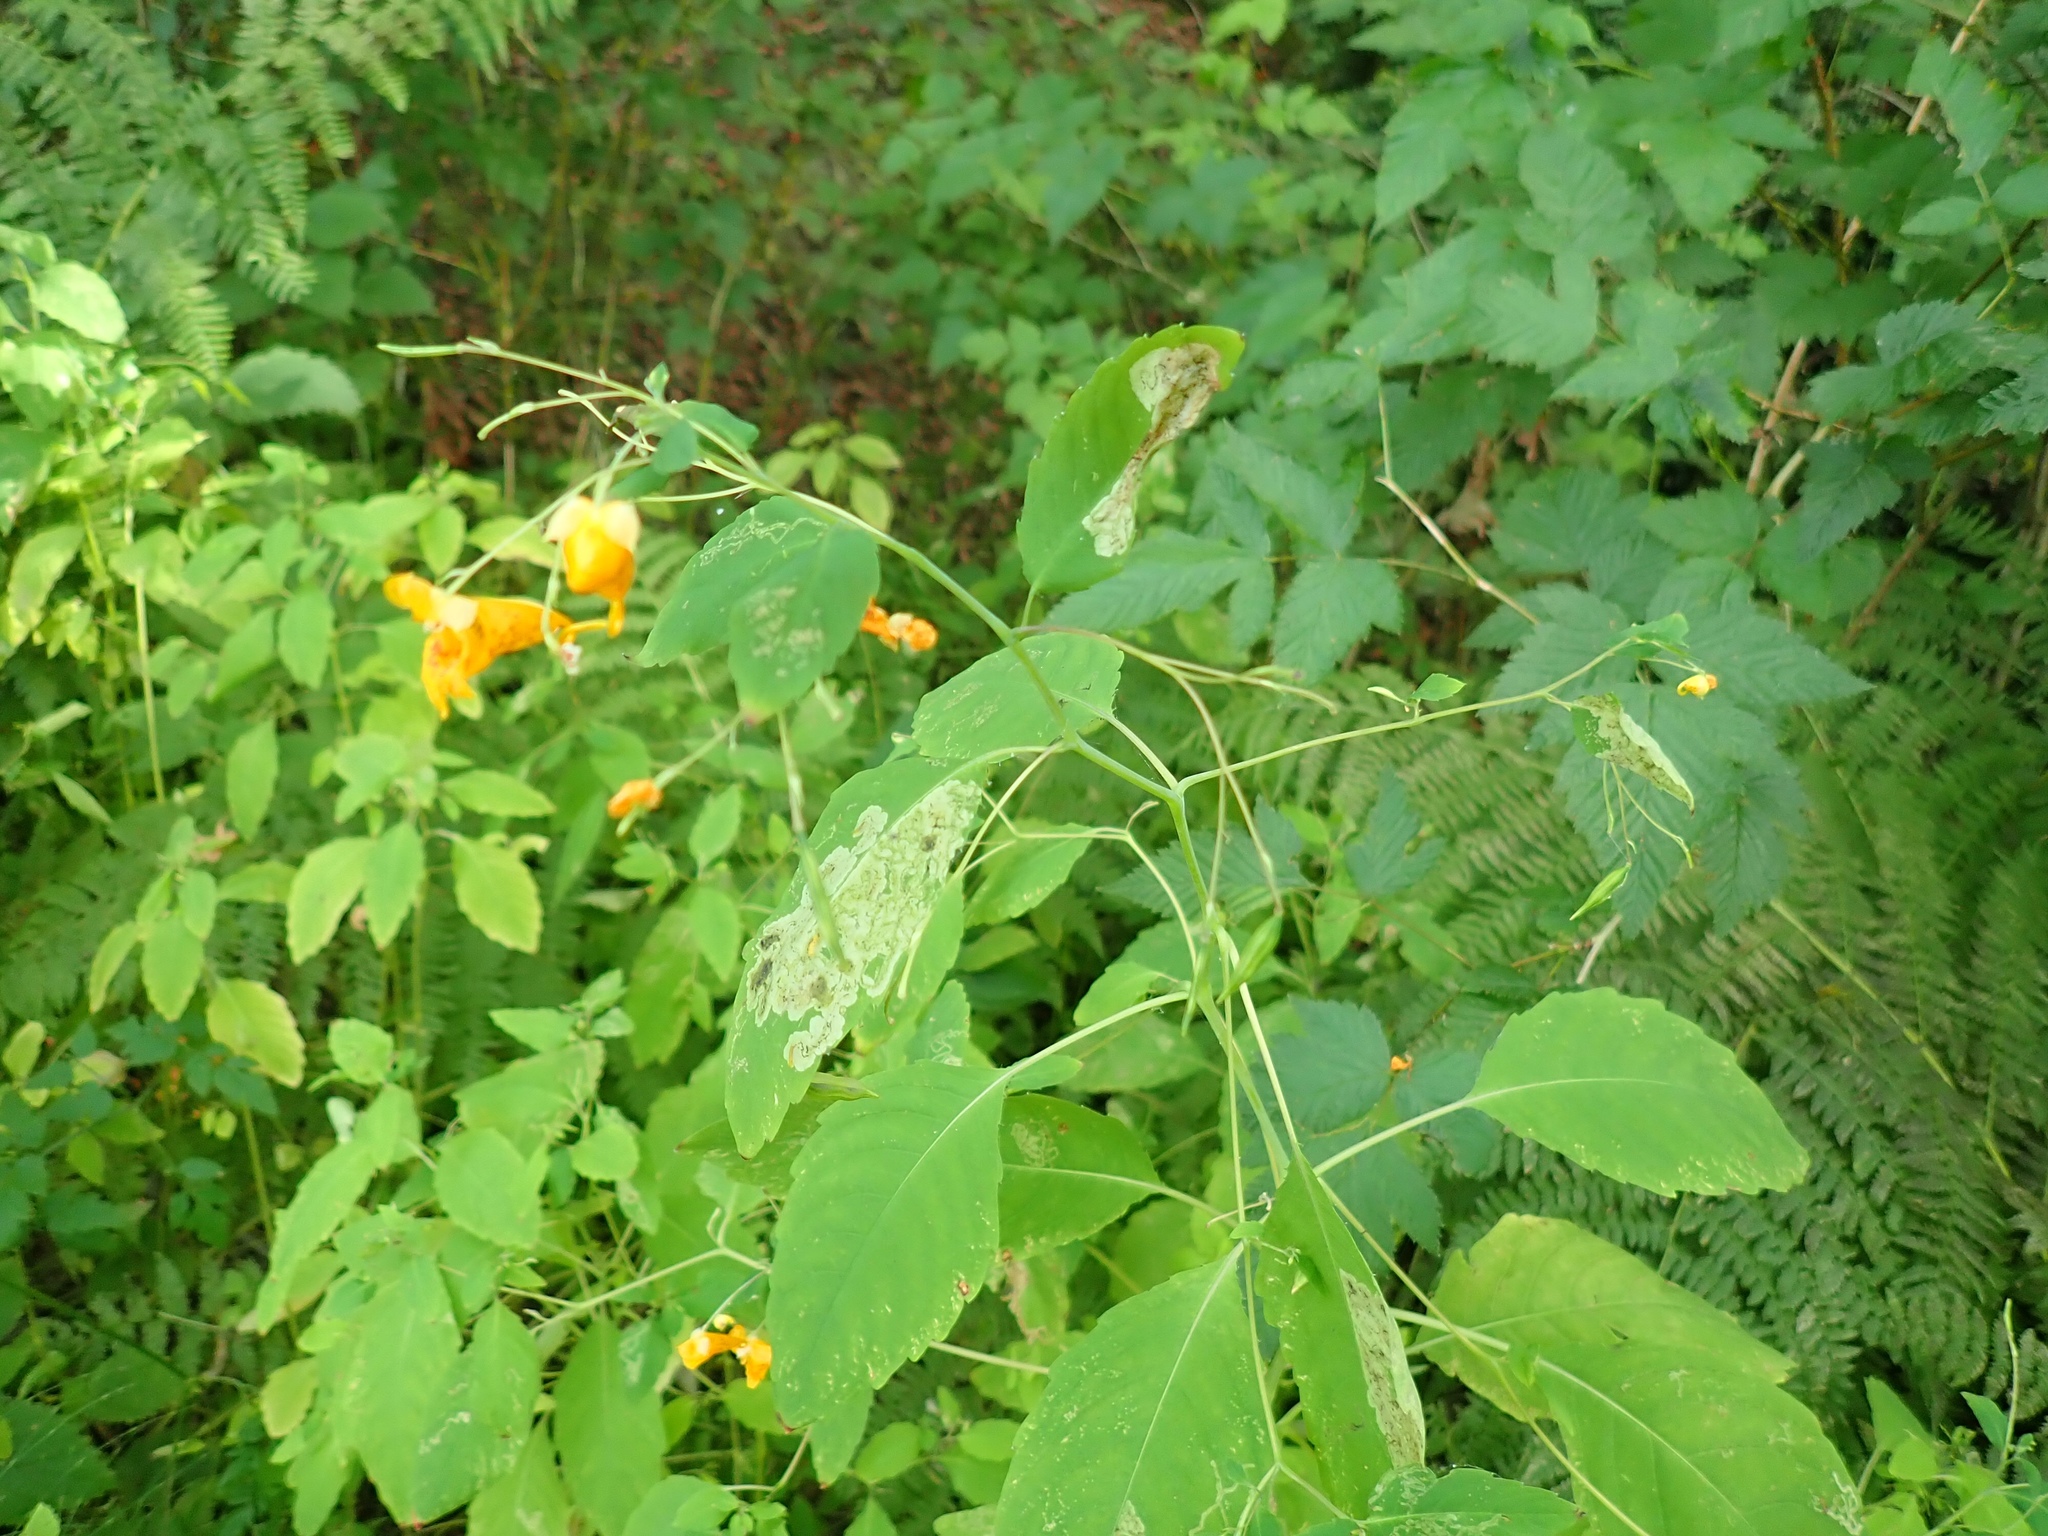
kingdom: Plantae
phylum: Tracheophyta
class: Magnoliopsida
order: Ericales
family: Balsaminaceae
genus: Impatiens
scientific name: Impatiens capensis
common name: Orange balsam
